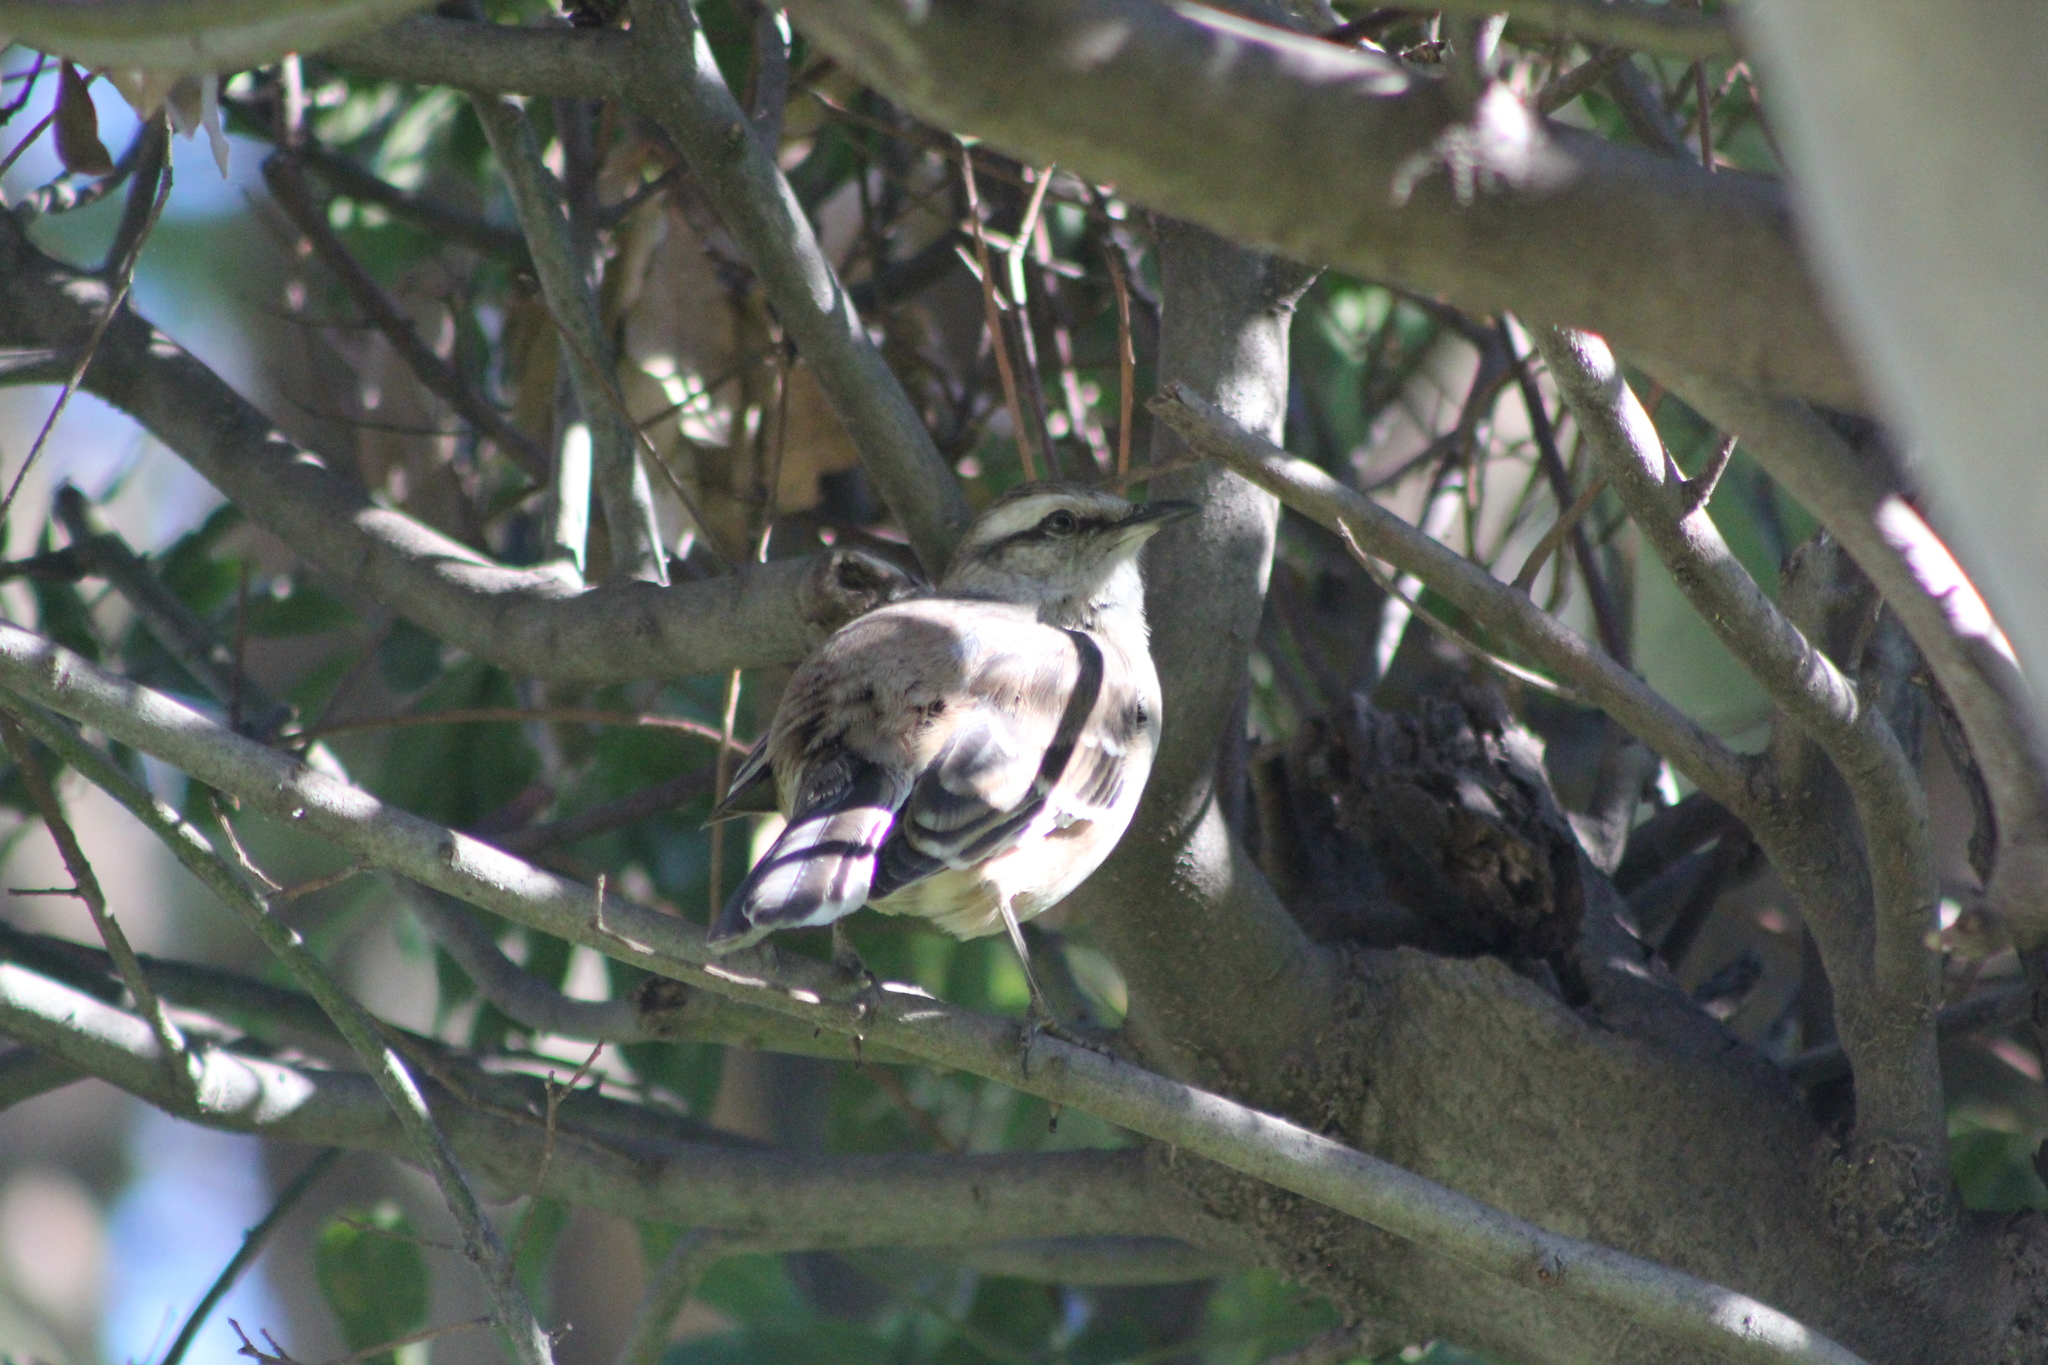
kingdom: Animalia
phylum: Chordata
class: Aves
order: Passeriformes
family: Mimidae
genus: Mimus
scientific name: Mimus saturninus
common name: Chalk-browed mockingbird
